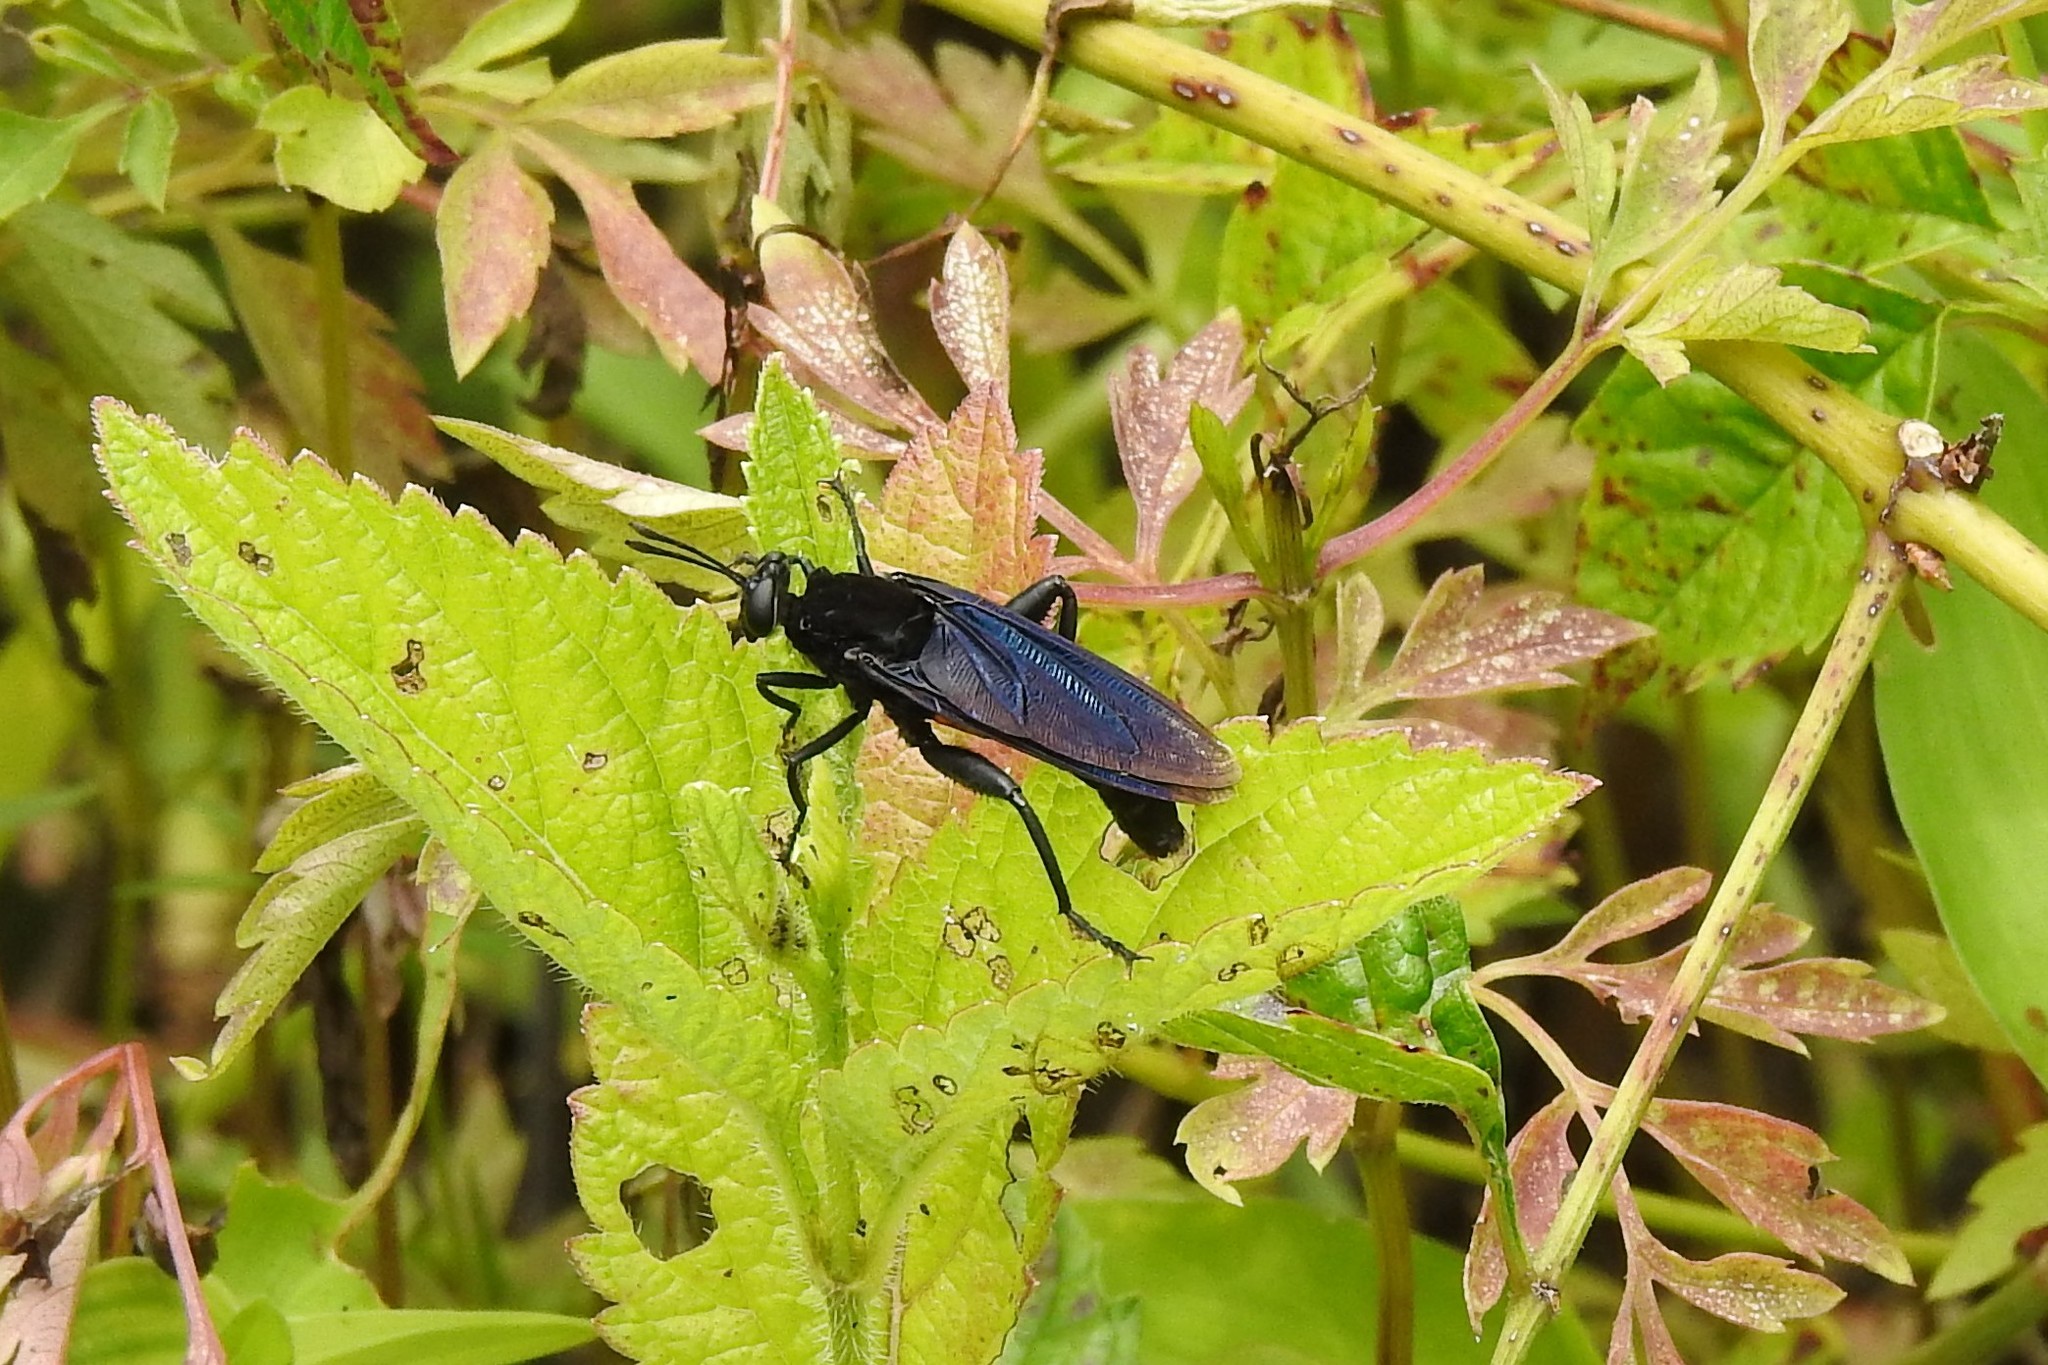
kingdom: Animalia
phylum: Arthropoda
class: Insecta
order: Diptera
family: Mydidae
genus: Mydas
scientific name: Mydas clavatus
